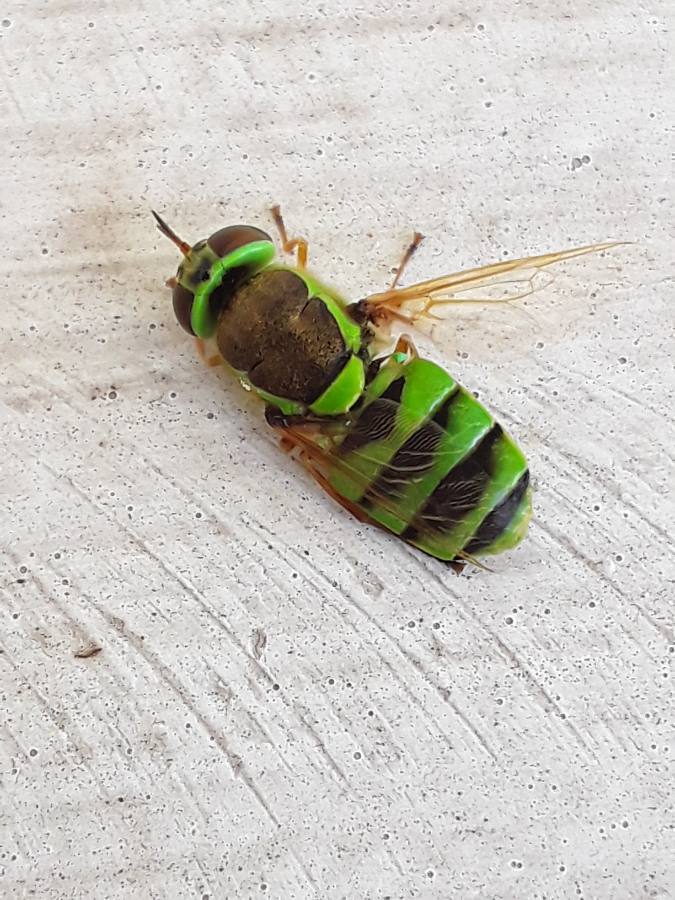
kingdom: Animalia
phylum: Arthropoda
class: Insecta
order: Diptera
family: Stratiomyidae
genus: Odontomyia
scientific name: Odontomyia cincta
